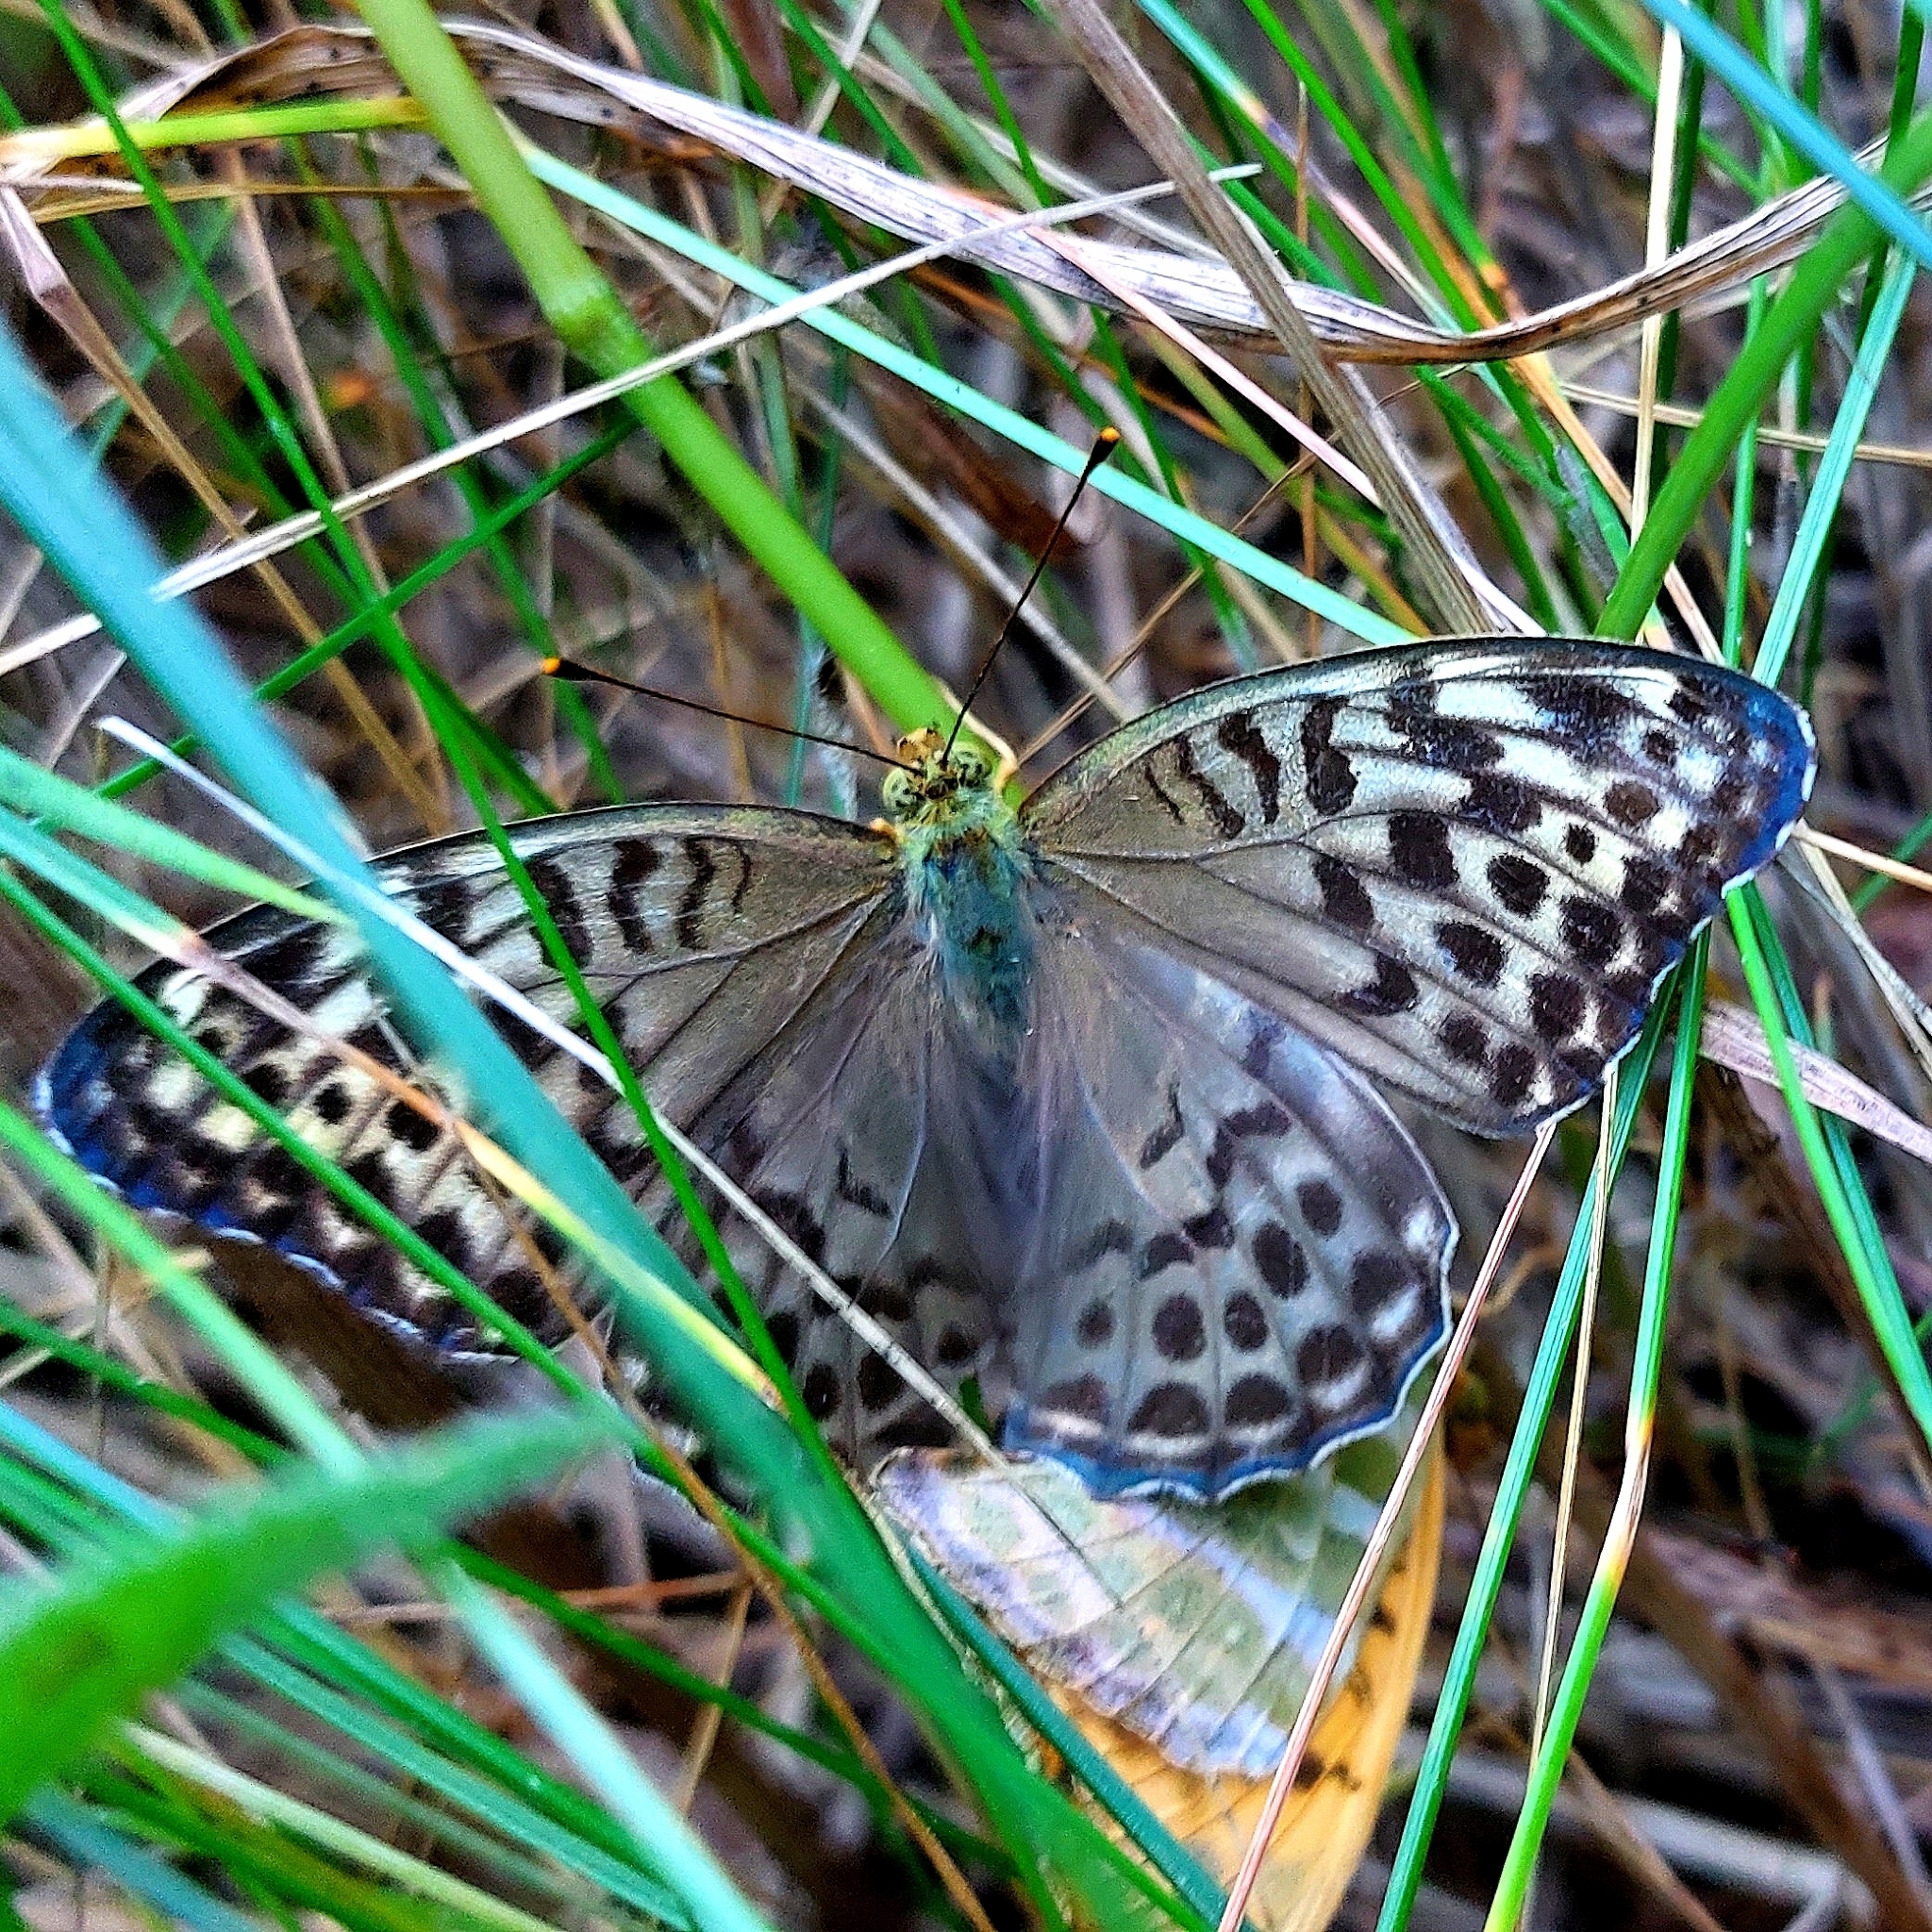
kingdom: Animalia
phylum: Arthropoda
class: Insecta
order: Lepidoptera
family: Nymphalidae
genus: Argynnis
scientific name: Argynnis paphia
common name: Silver-washed fritillary
